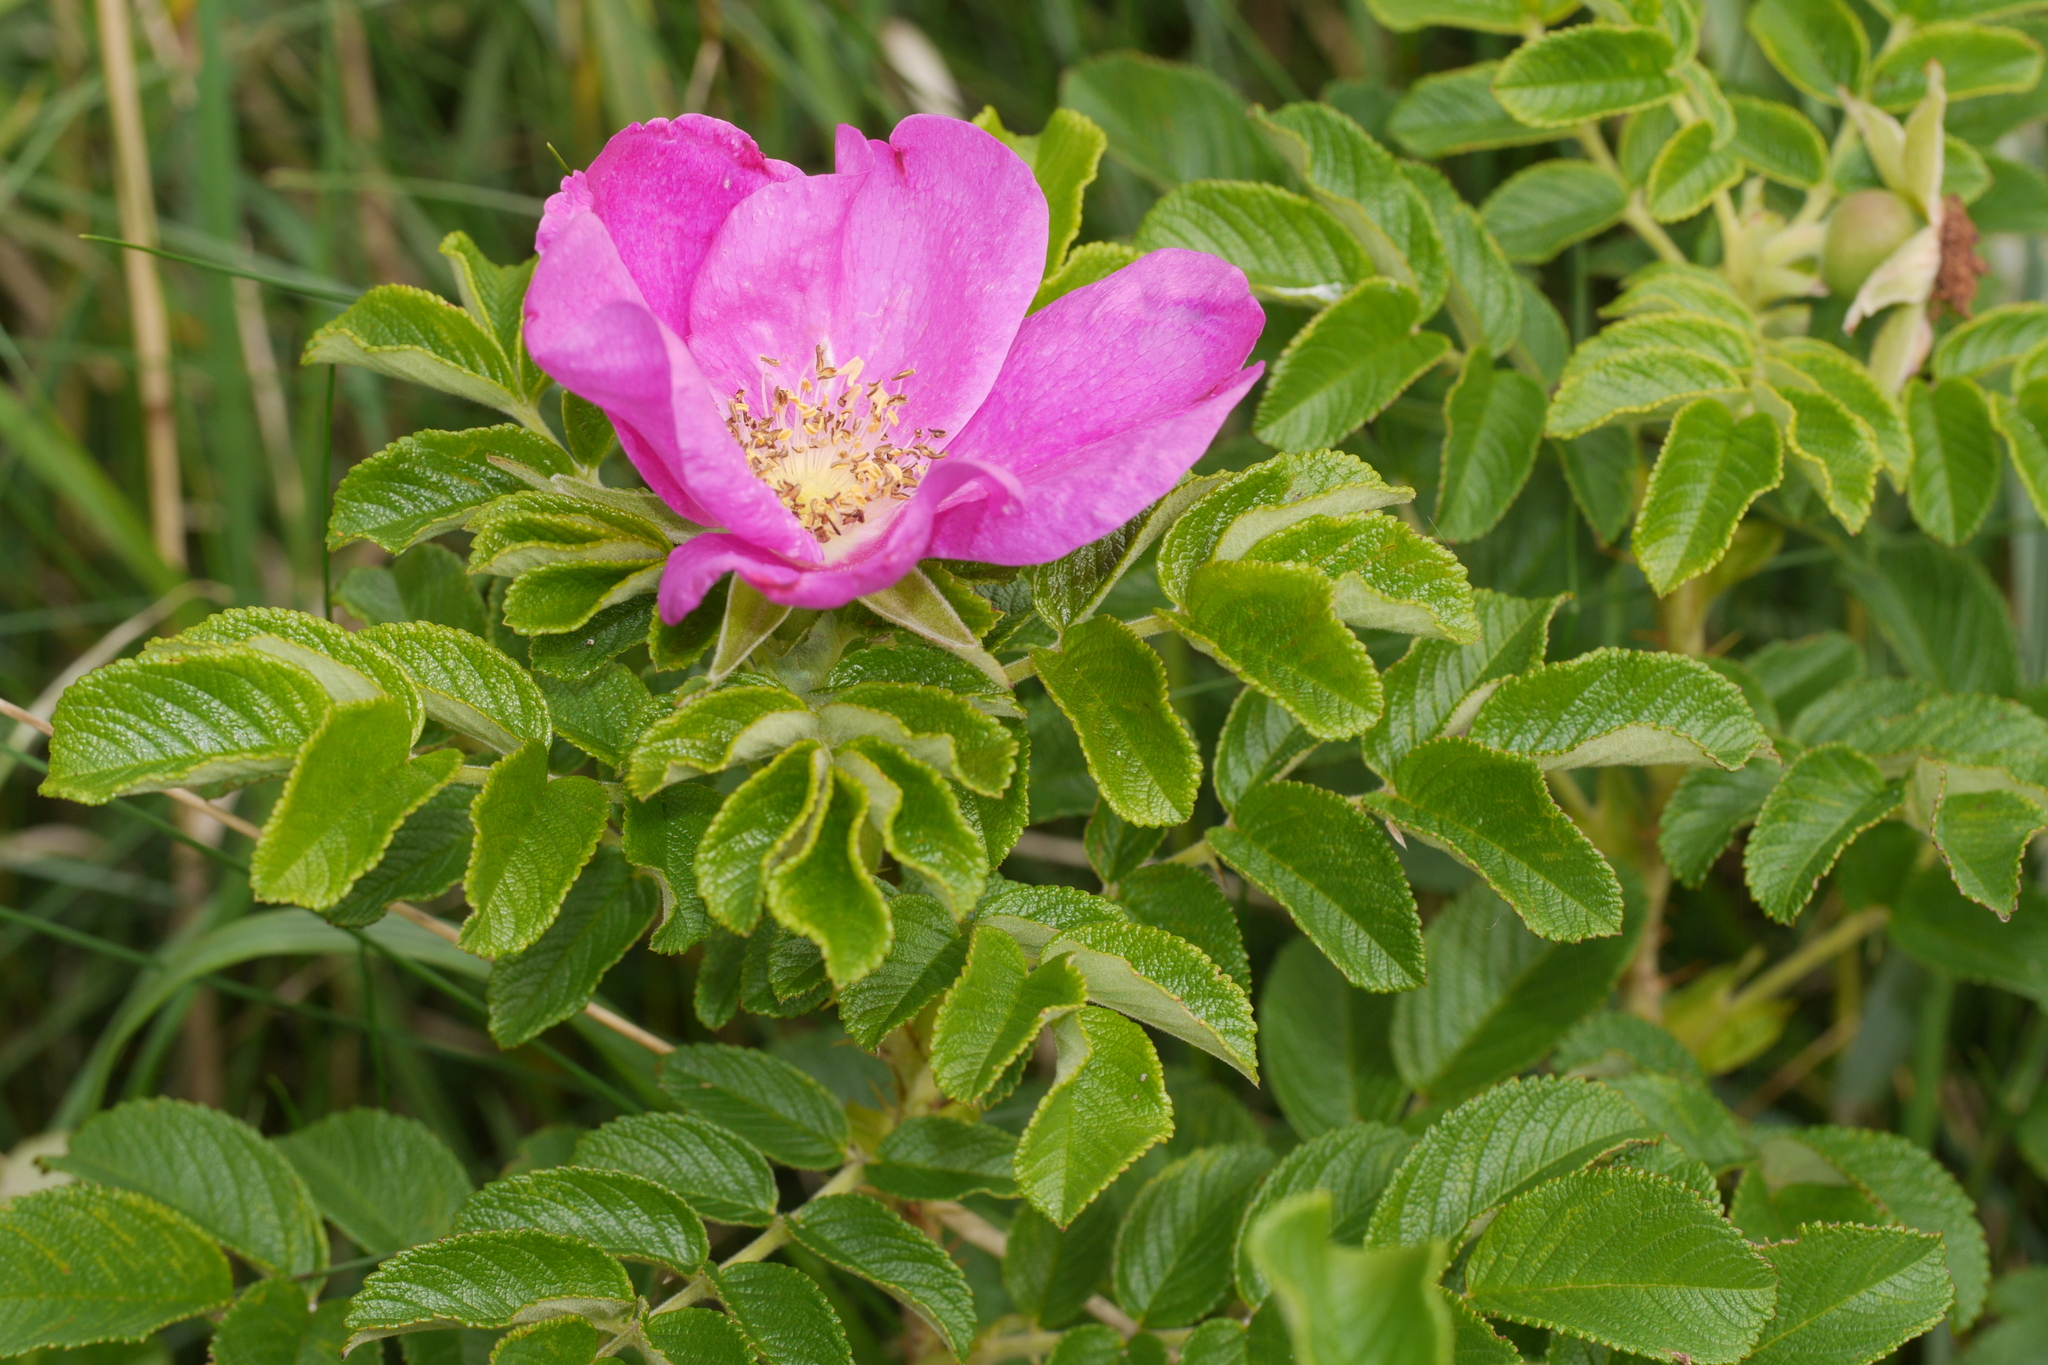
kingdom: Plantae
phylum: Tracheophyta
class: Magnoliopsida
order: Rosales
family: Rosaceae
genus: Rosa
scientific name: Rosa rugosa
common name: Japanese rose
